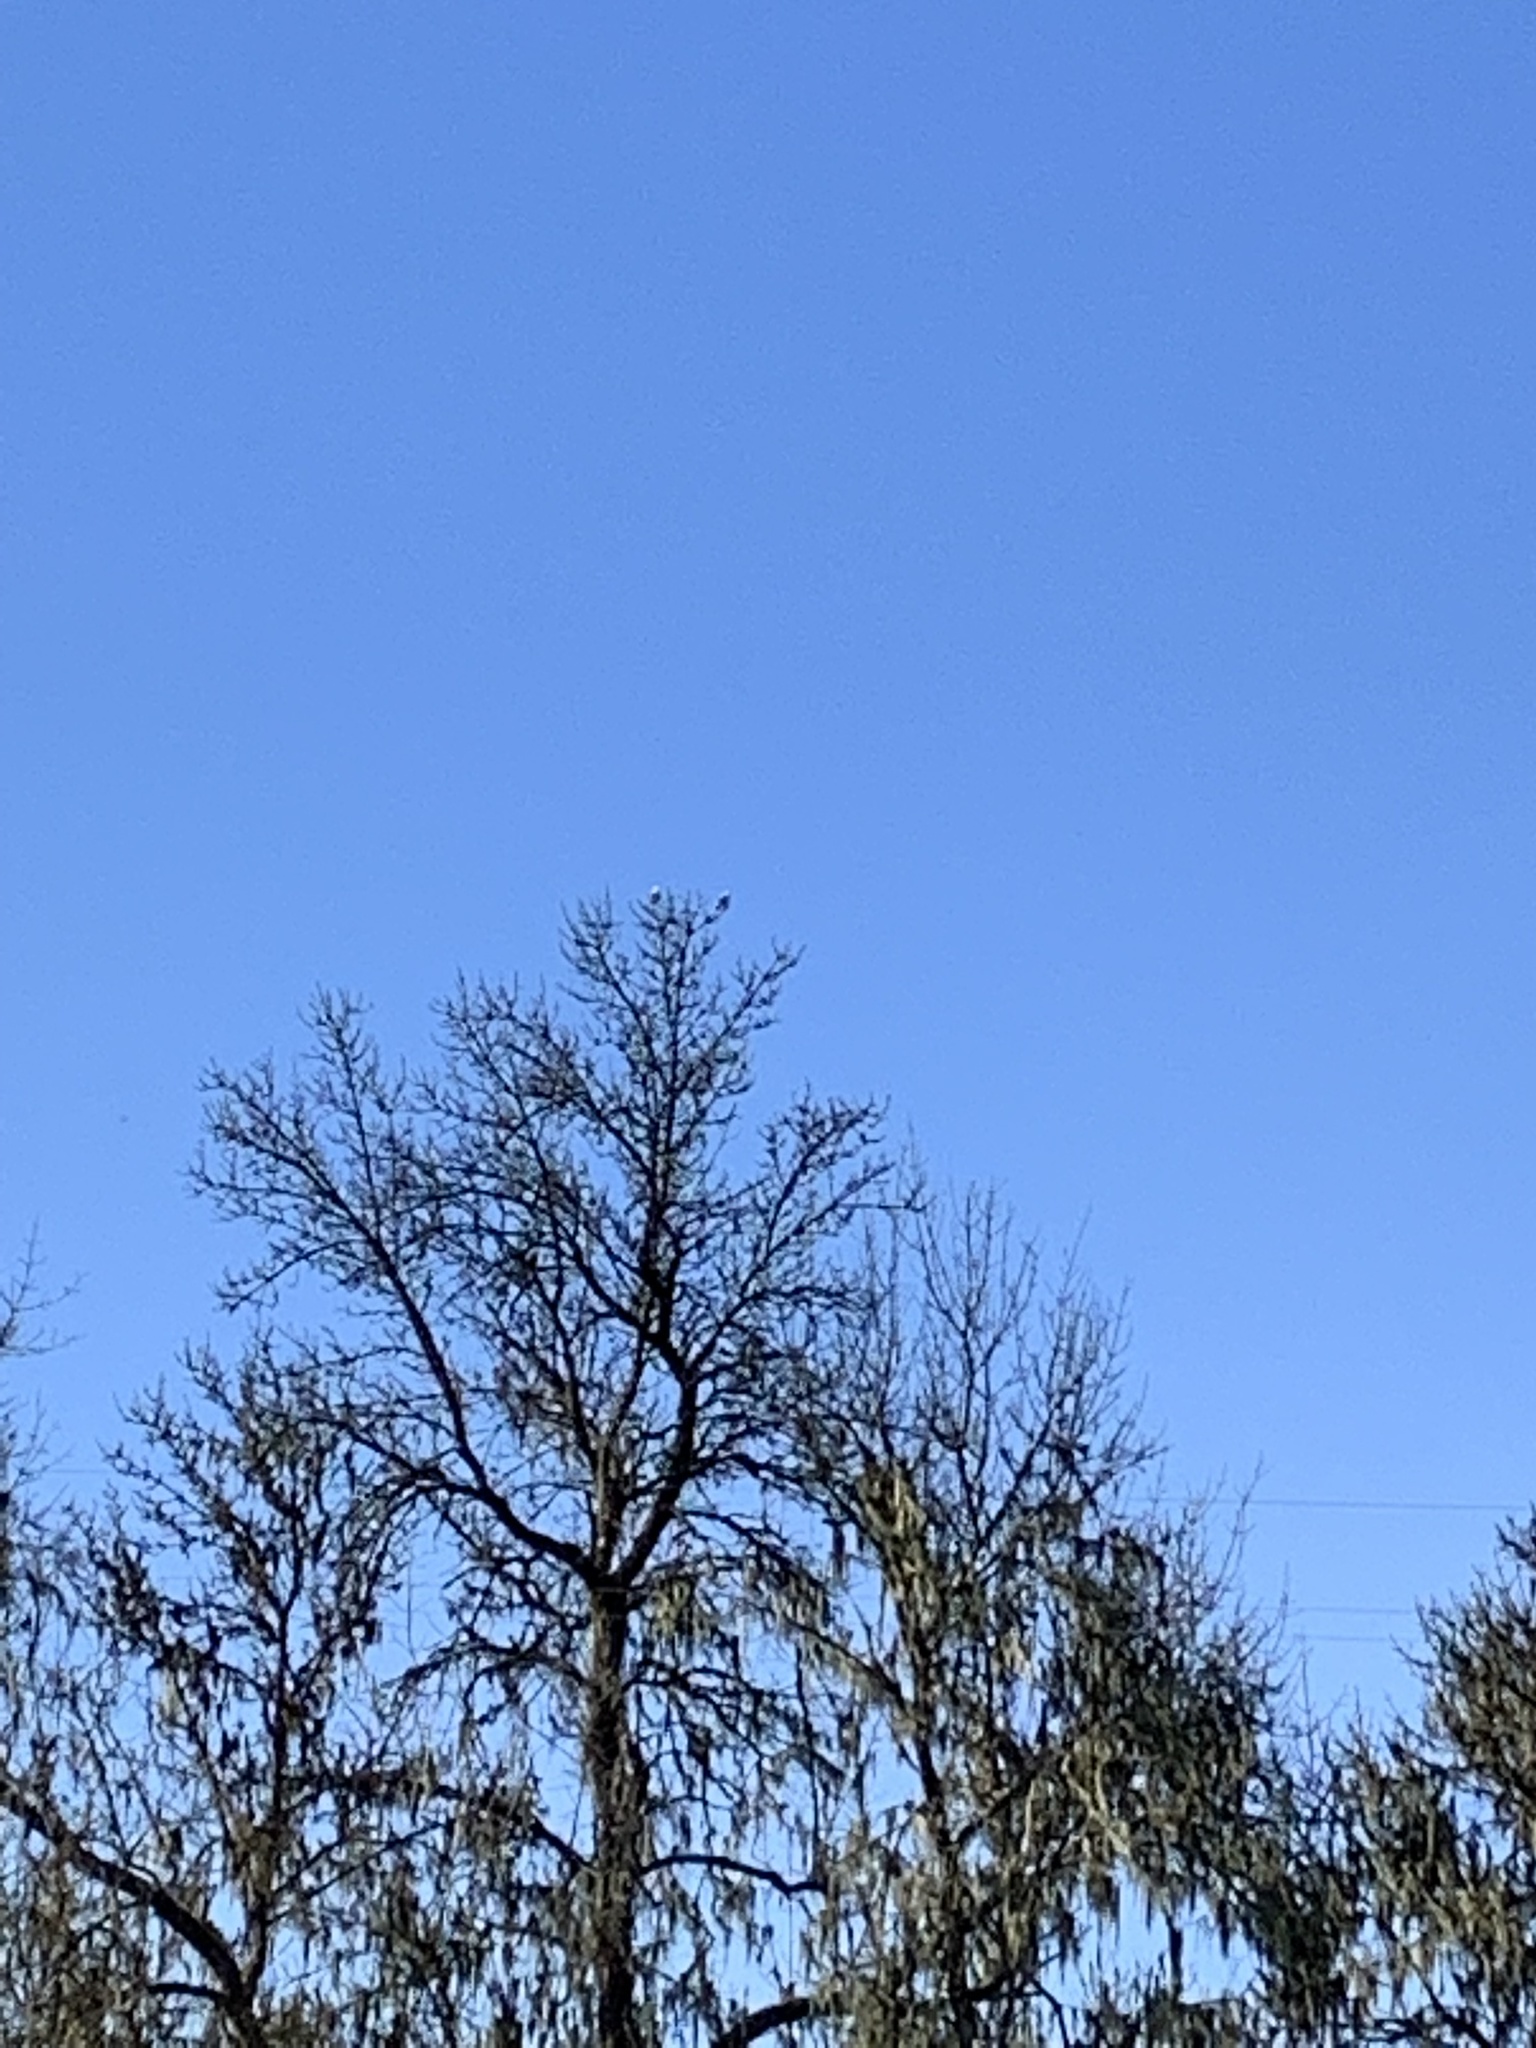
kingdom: Animalia
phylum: Chordata
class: Aves
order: Accipitriformes
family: Accipitridae
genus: Elanus
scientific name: Elanus leucurus
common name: White-tailed kite
